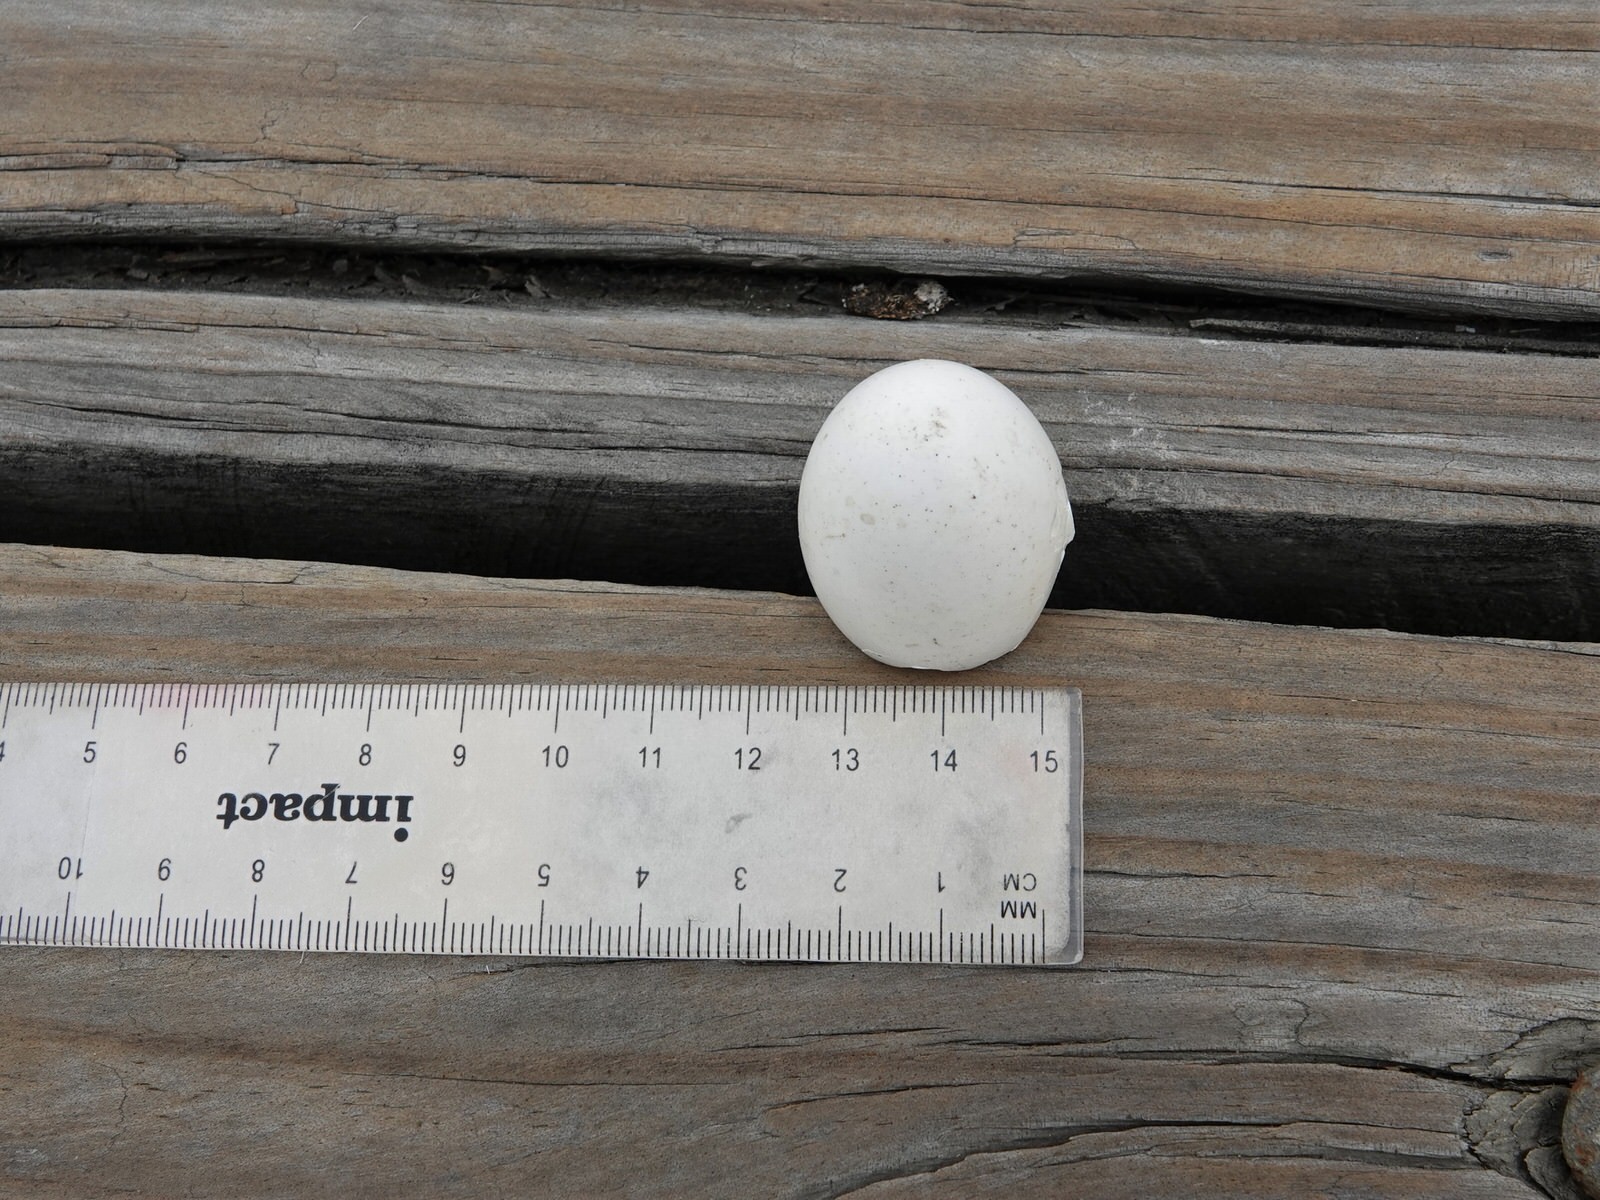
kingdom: Animalia
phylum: Chordata
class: Aves
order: Columbiformes
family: Columbidae
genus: Columba
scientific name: Columba livia
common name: Rock pigeon
